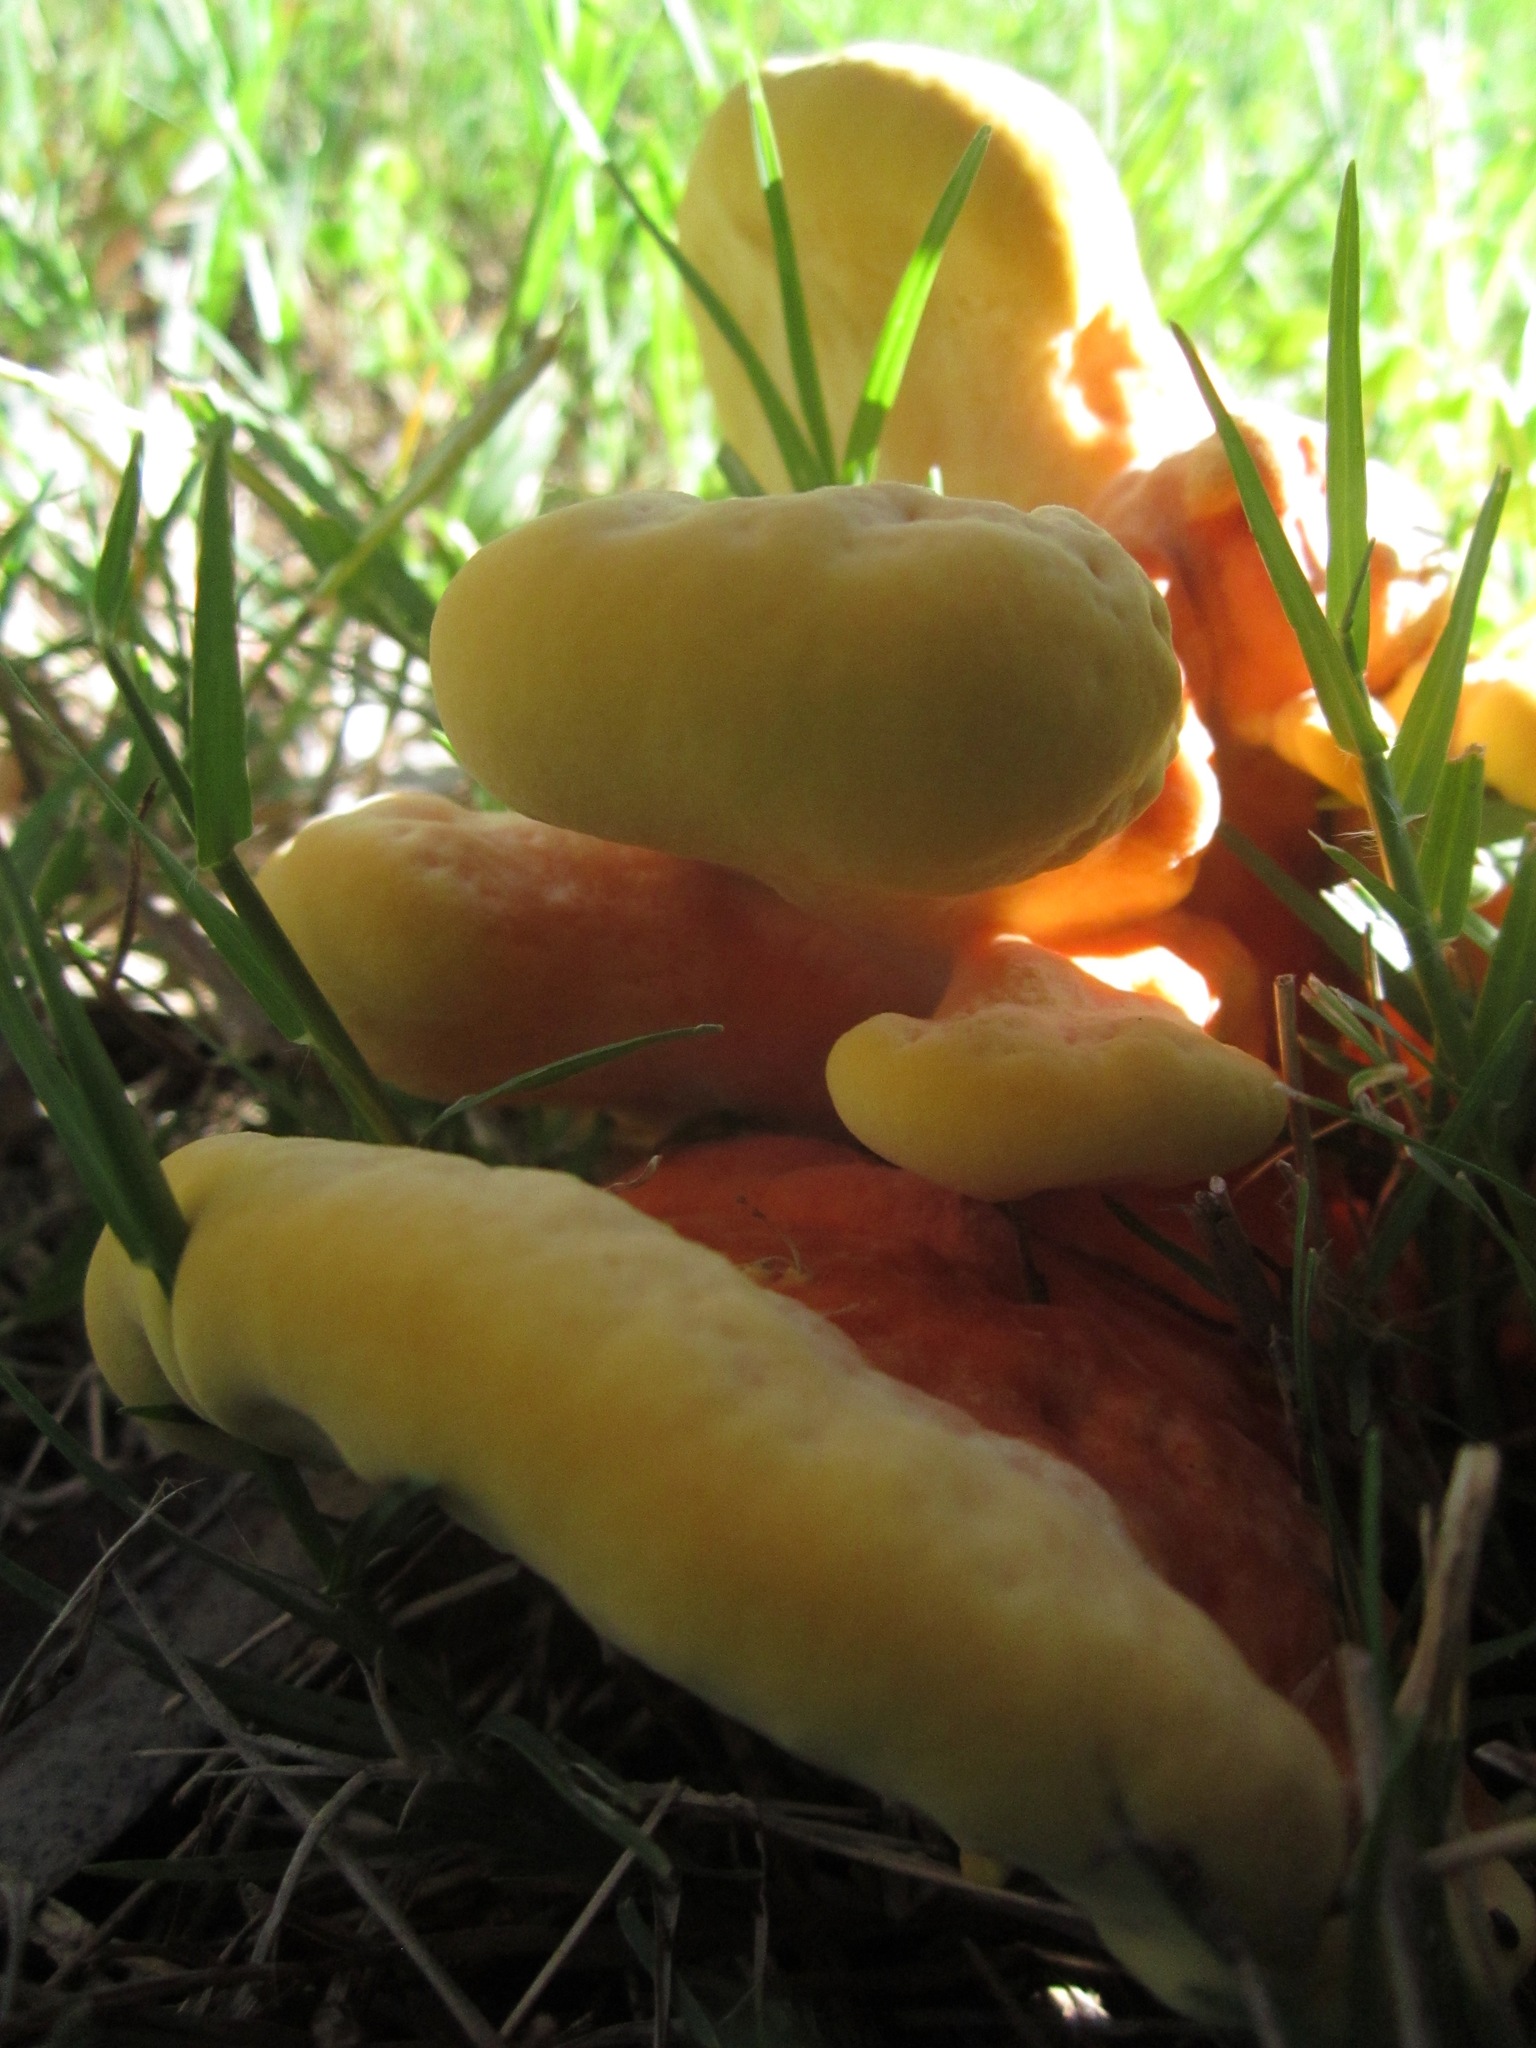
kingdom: Fungi
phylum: Basidiomycota
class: Agaricomycetes
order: Polyporales
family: Laetiporaceae
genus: Laetiporus
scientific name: Laetiporus gilbertsonii
